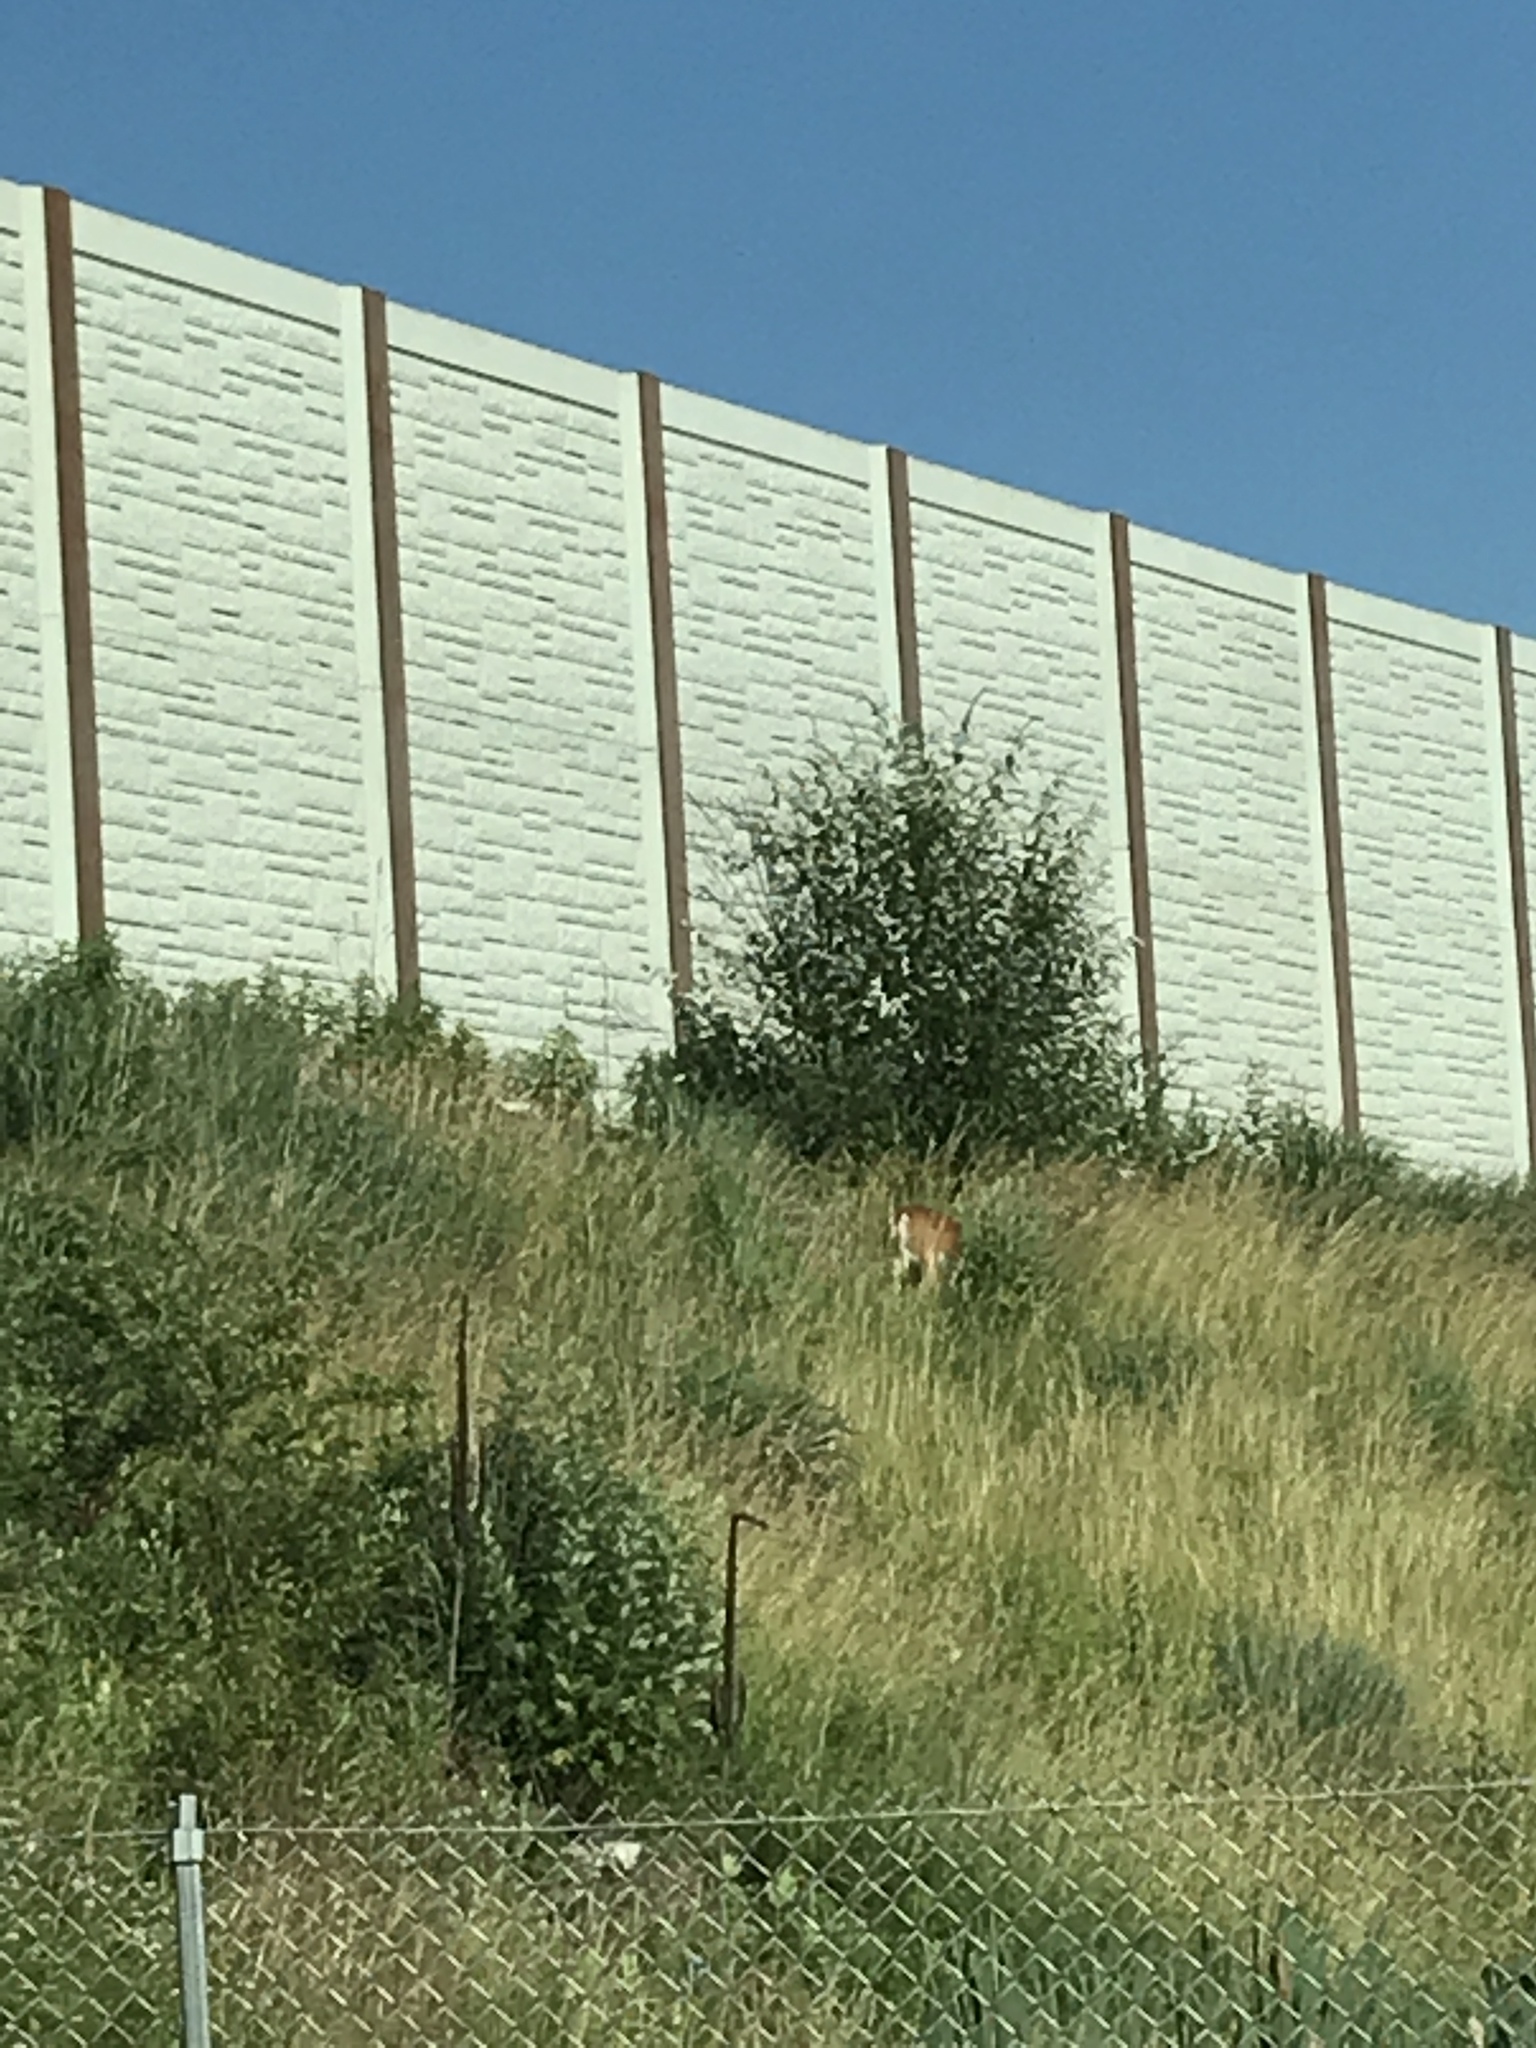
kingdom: Animalia
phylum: Chordata
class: Mammalia
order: Artiodactyla
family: Cervidae
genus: Odocoileus
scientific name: Odocoileus virginianus
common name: White-tailed deer
